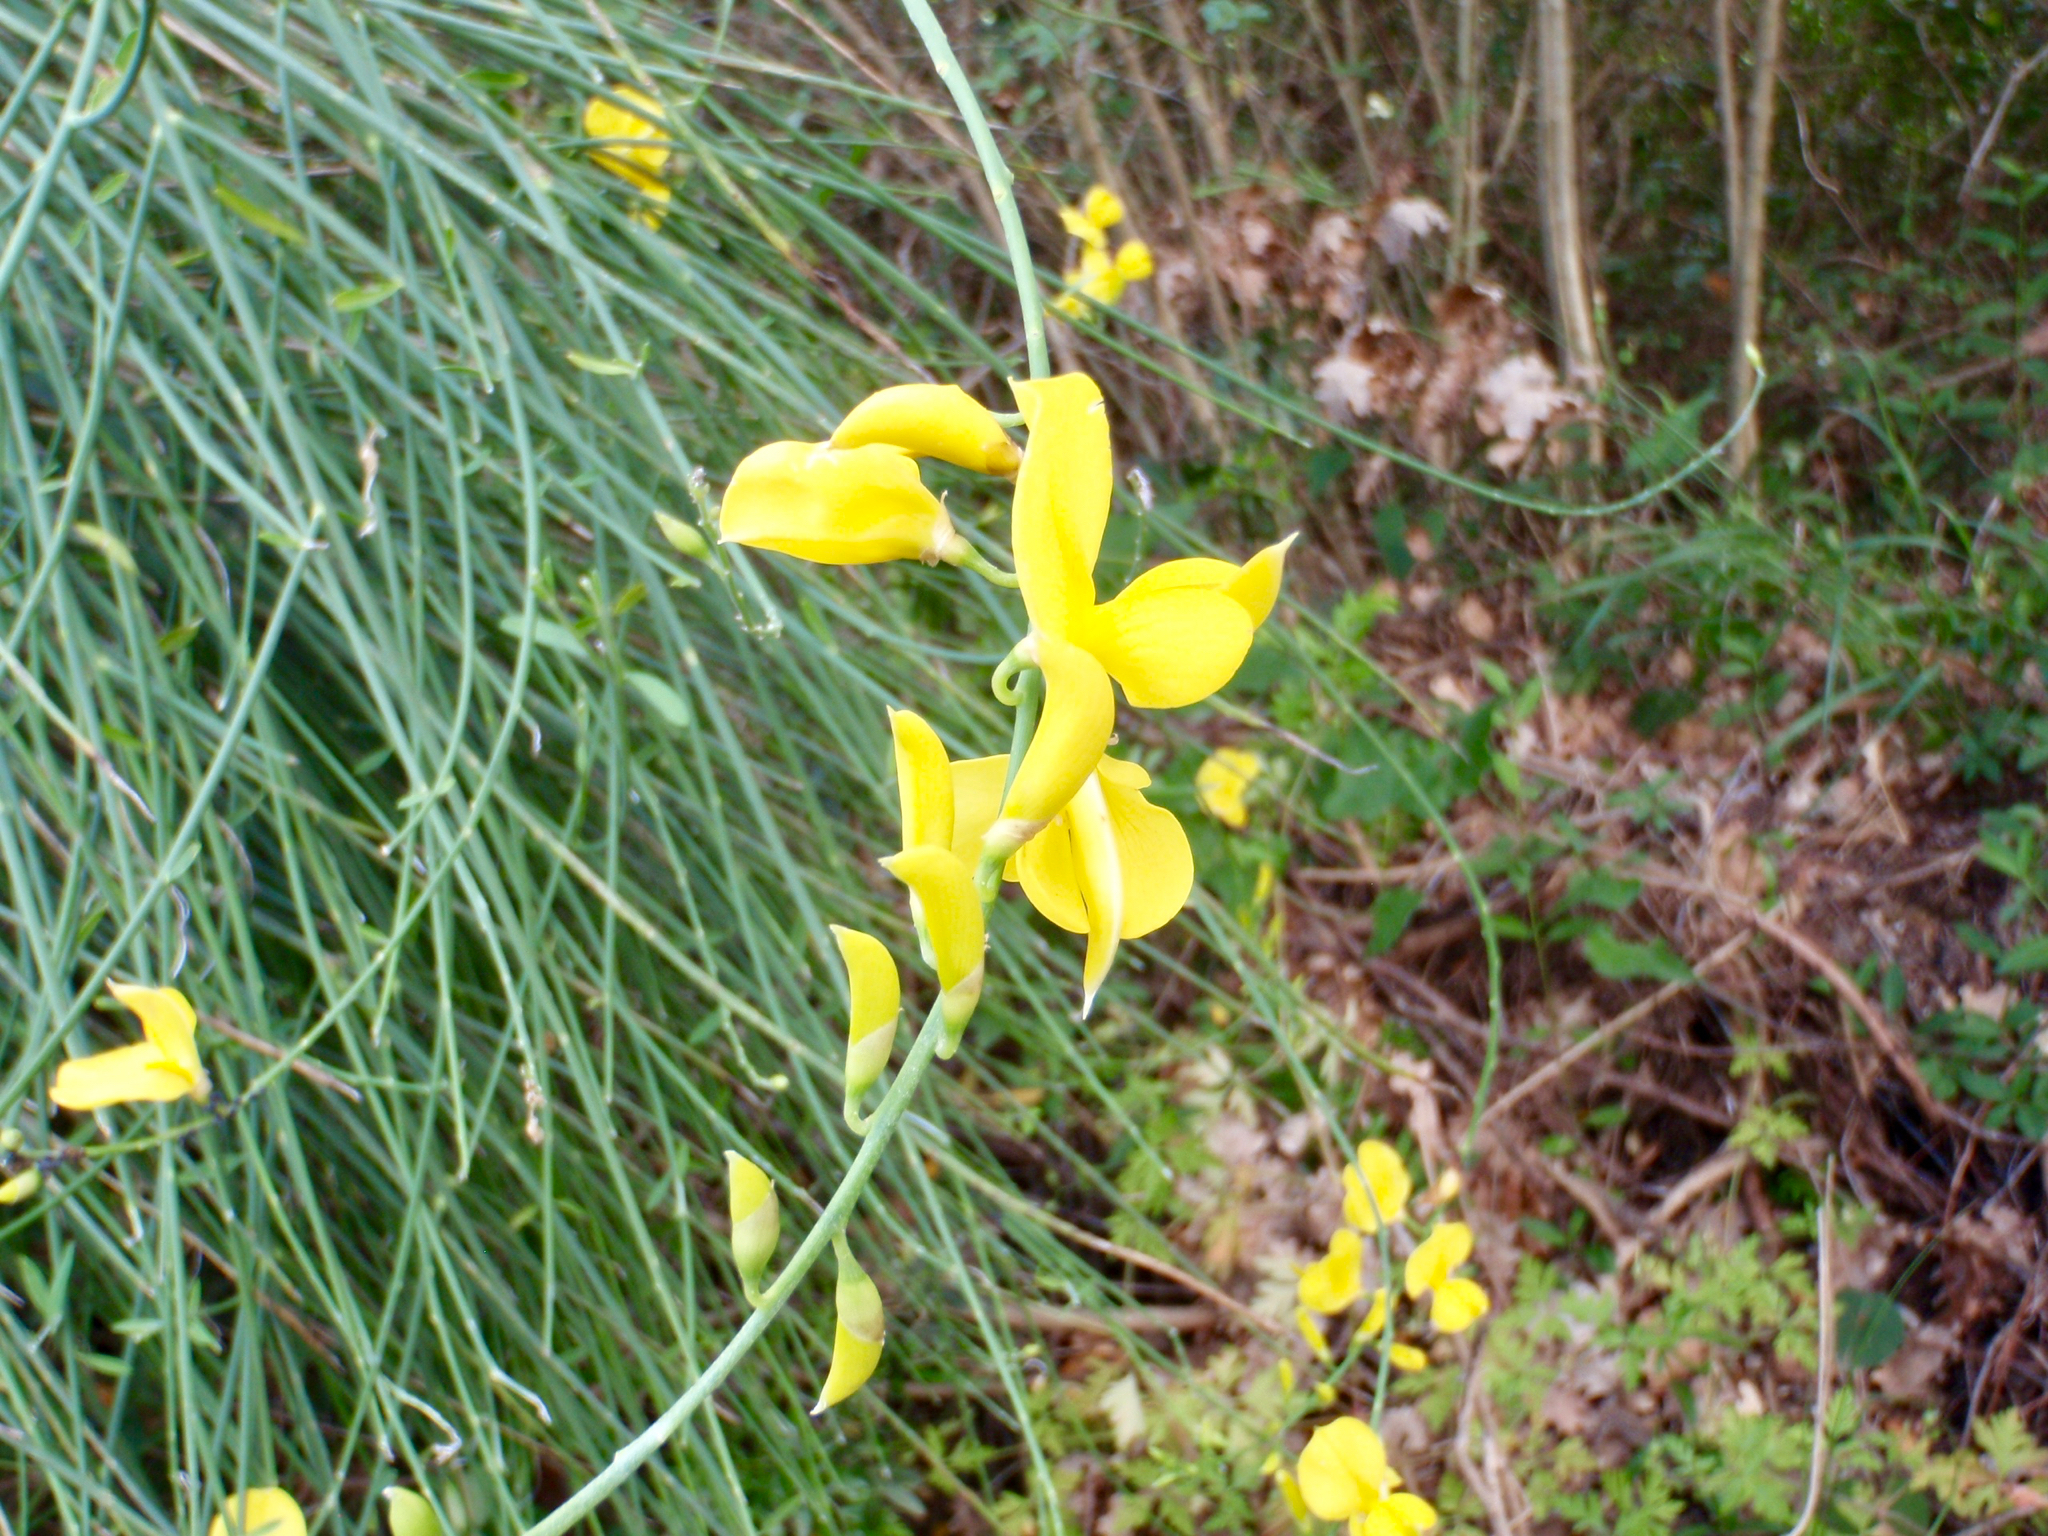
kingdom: Plantae
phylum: Tracheophyta
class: Magnoliopsida
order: Fabales
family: Fabaceae
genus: Spartium
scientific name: Spartium junceum
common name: Spanish broom
